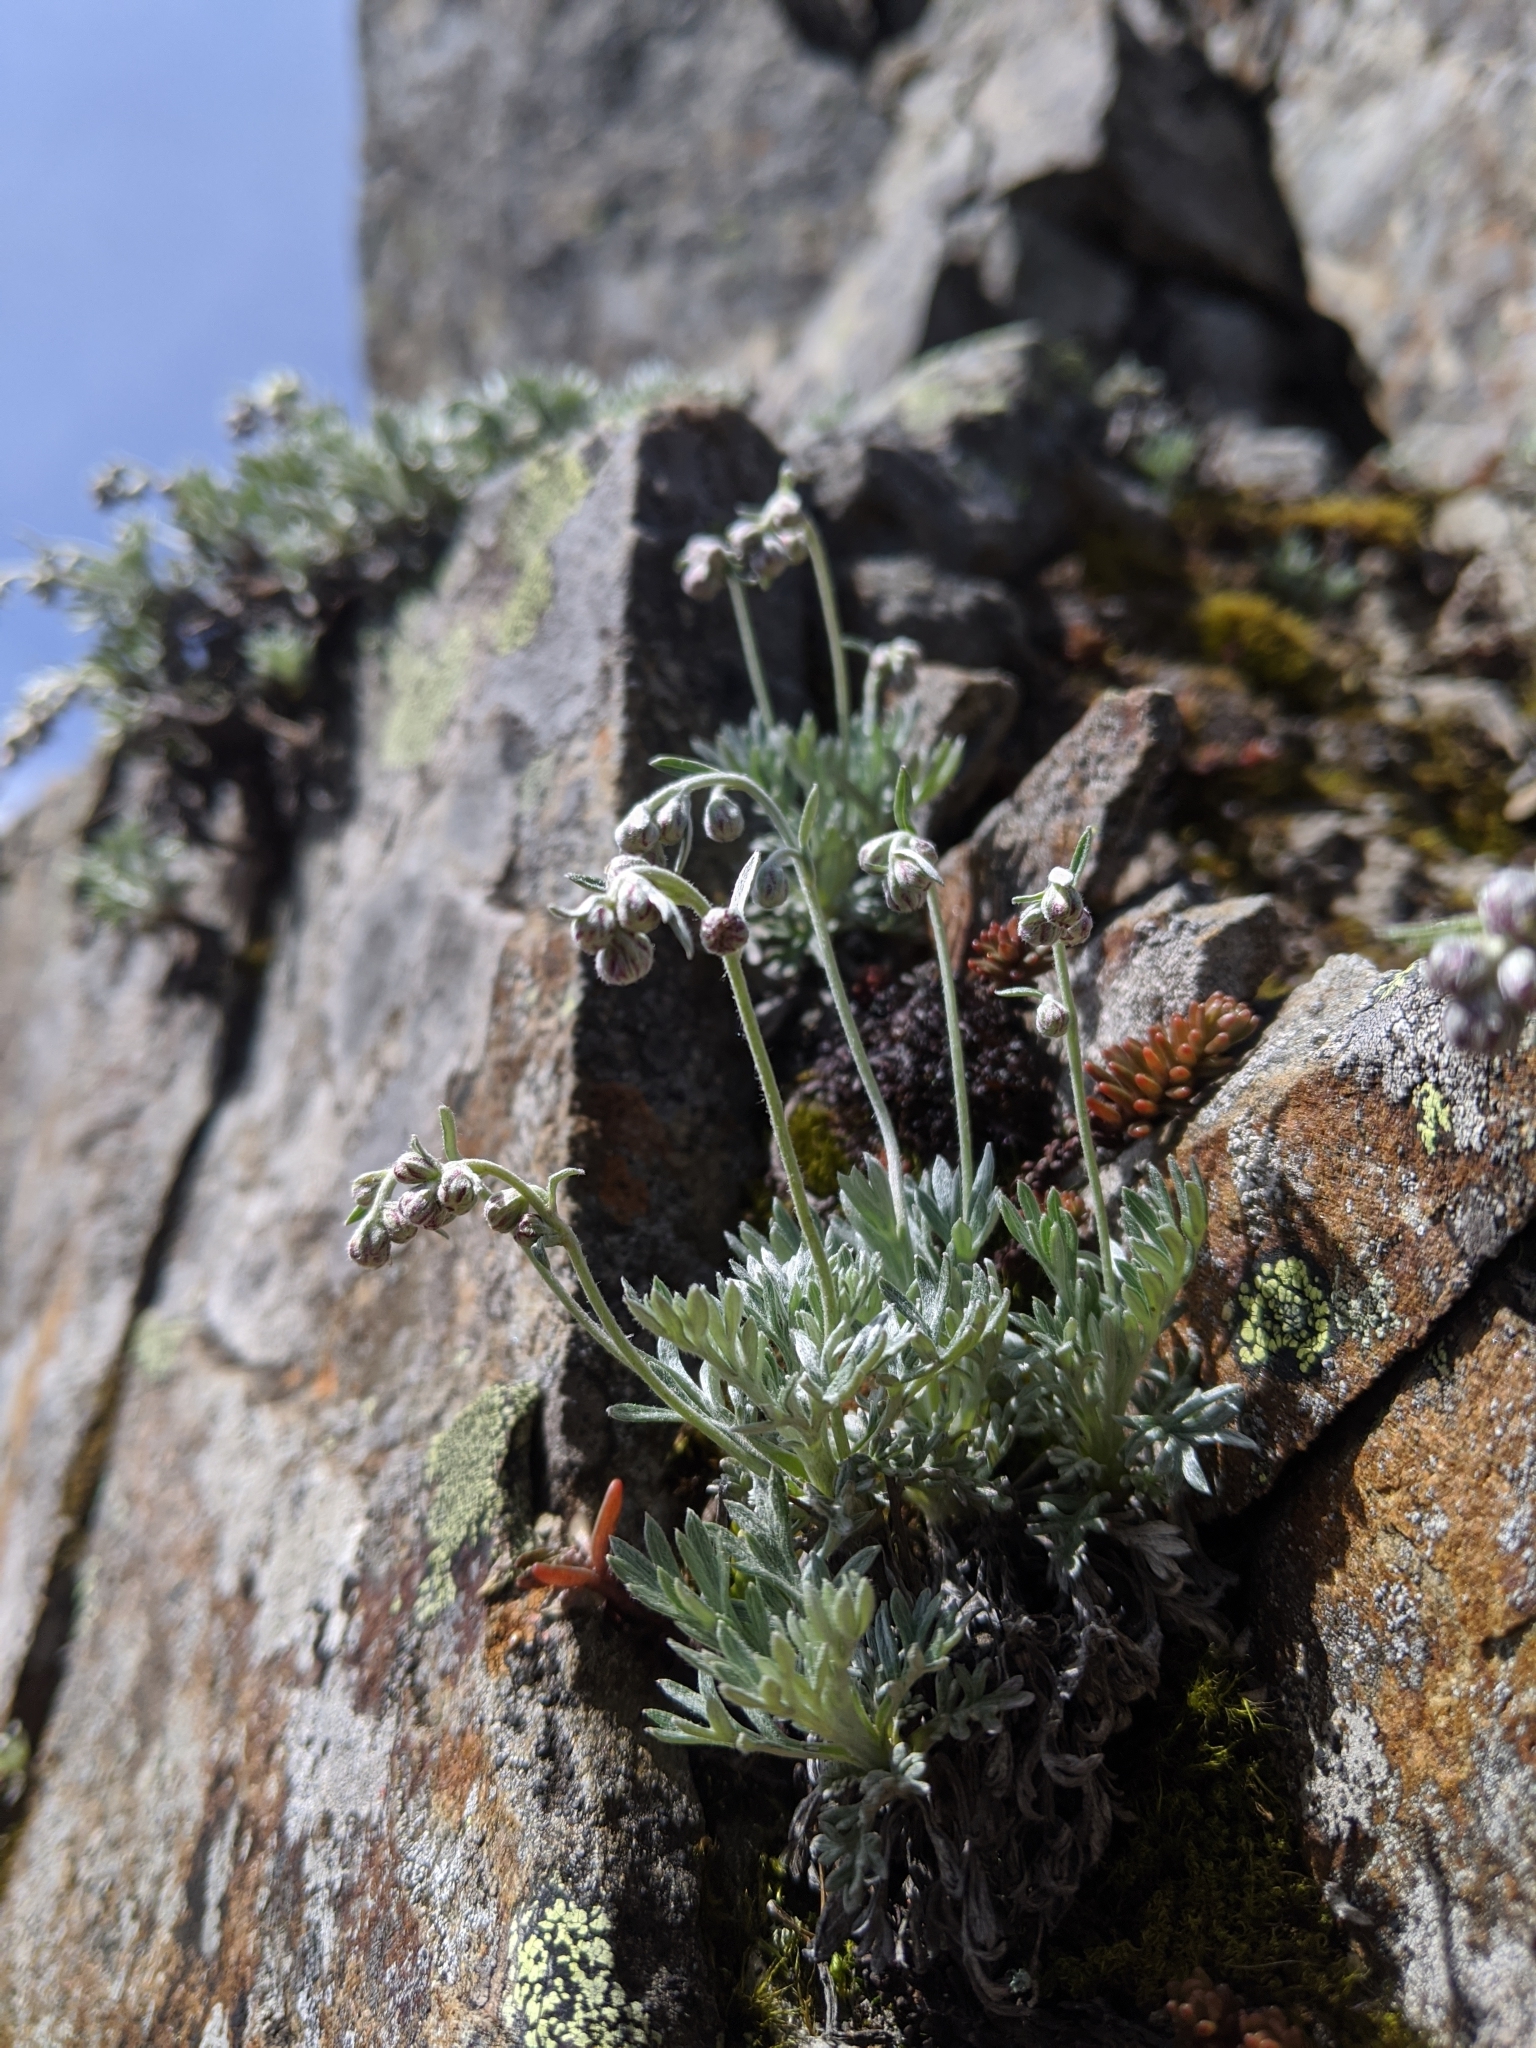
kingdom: Plantae
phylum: Tracheophyta
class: Magnoliopsida
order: Asterales
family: Asteraceae
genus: Artemisia
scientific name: Artemisia kawakamii
